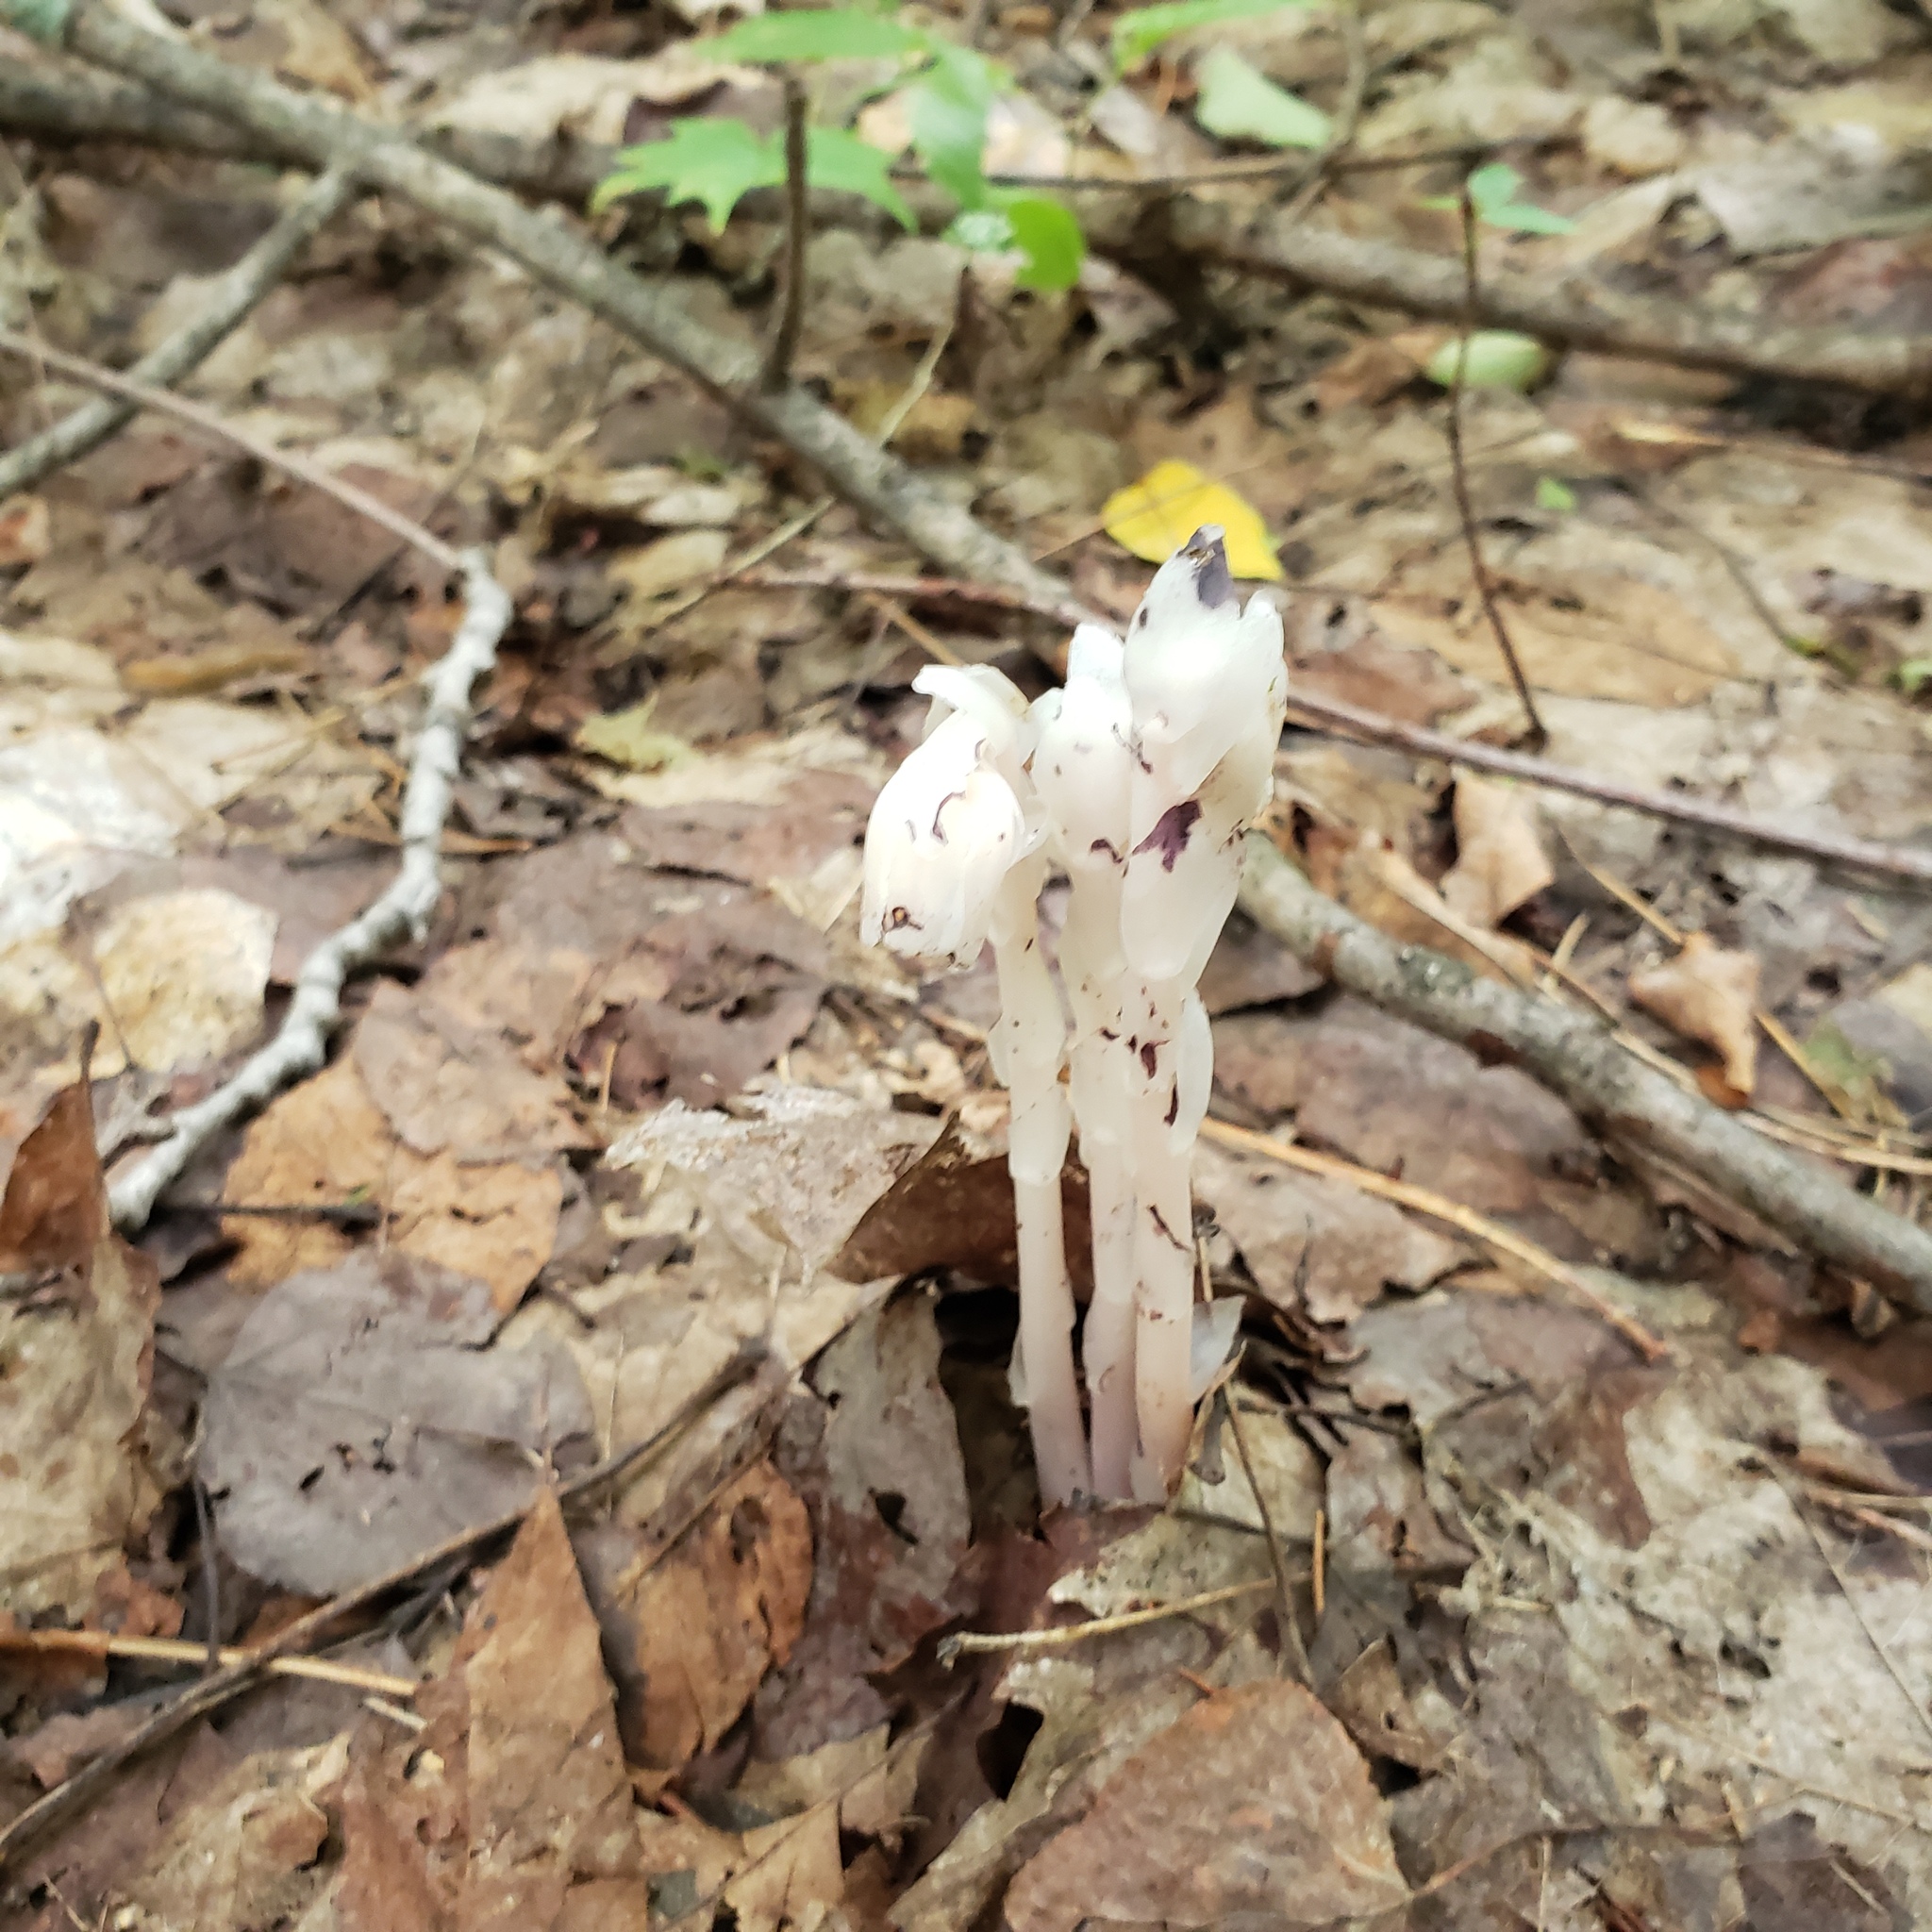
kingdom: Plantae
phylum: Tracheophyta
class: Magnoliopsida
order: Ericales
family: Ericaceae
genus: Monotropa
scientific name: Monotropa uniflora
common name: Convulsion root
